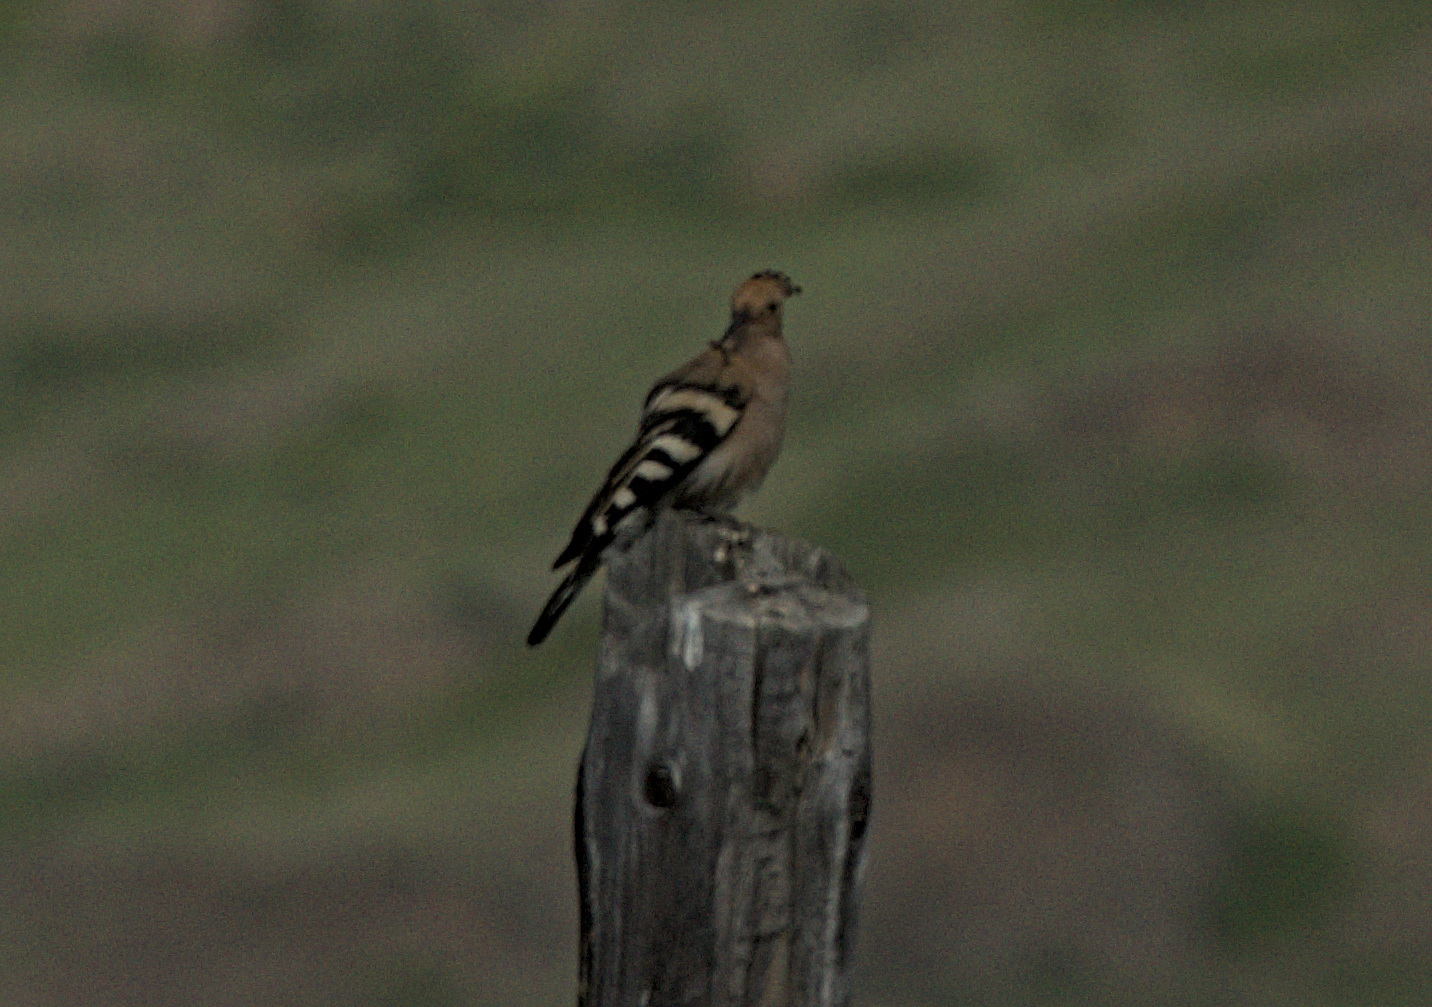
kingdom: Animalia
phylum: Chordata
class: Aves
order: Bucerotiformes
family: Upupidae
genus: Upupa
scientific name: Upupa epops
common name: Eurasian hoopoe
